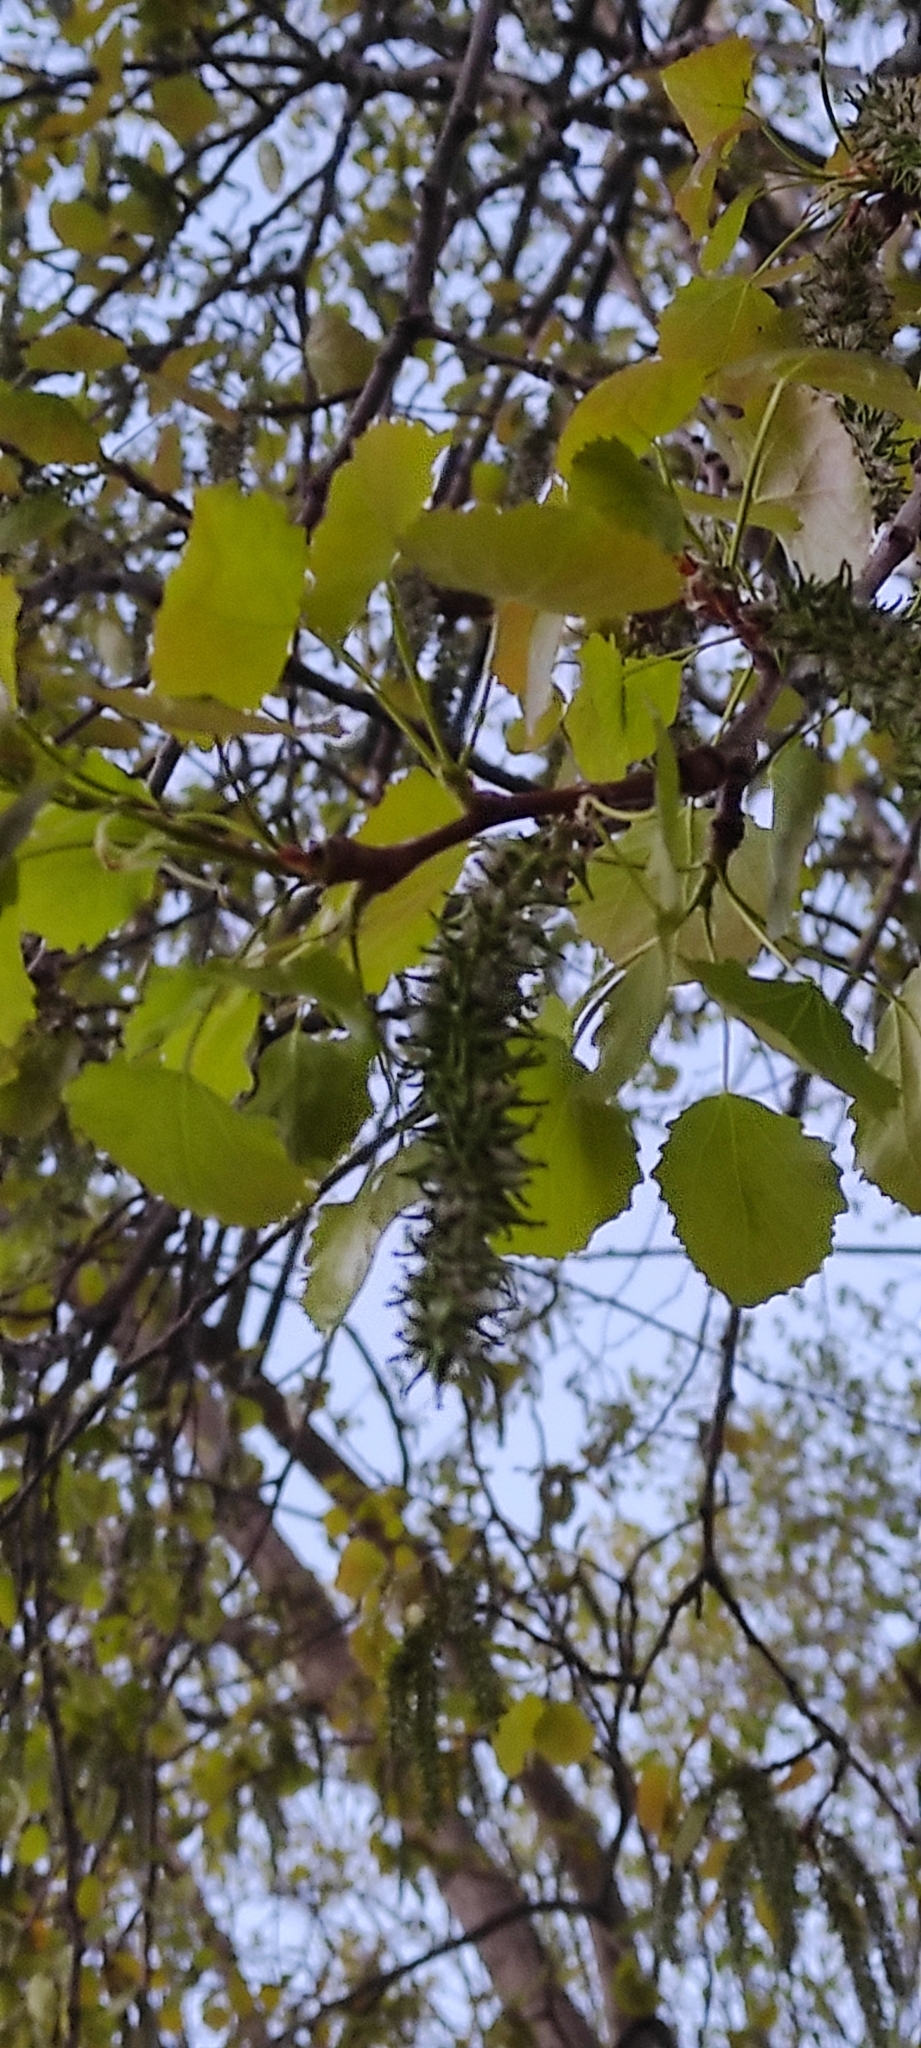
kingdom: Plantae
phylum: Tracheophyta
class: Magnoliopsida
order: Malpighiales
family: Salicaceae
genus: Populus
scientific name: Populus tremula
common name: European aspen
